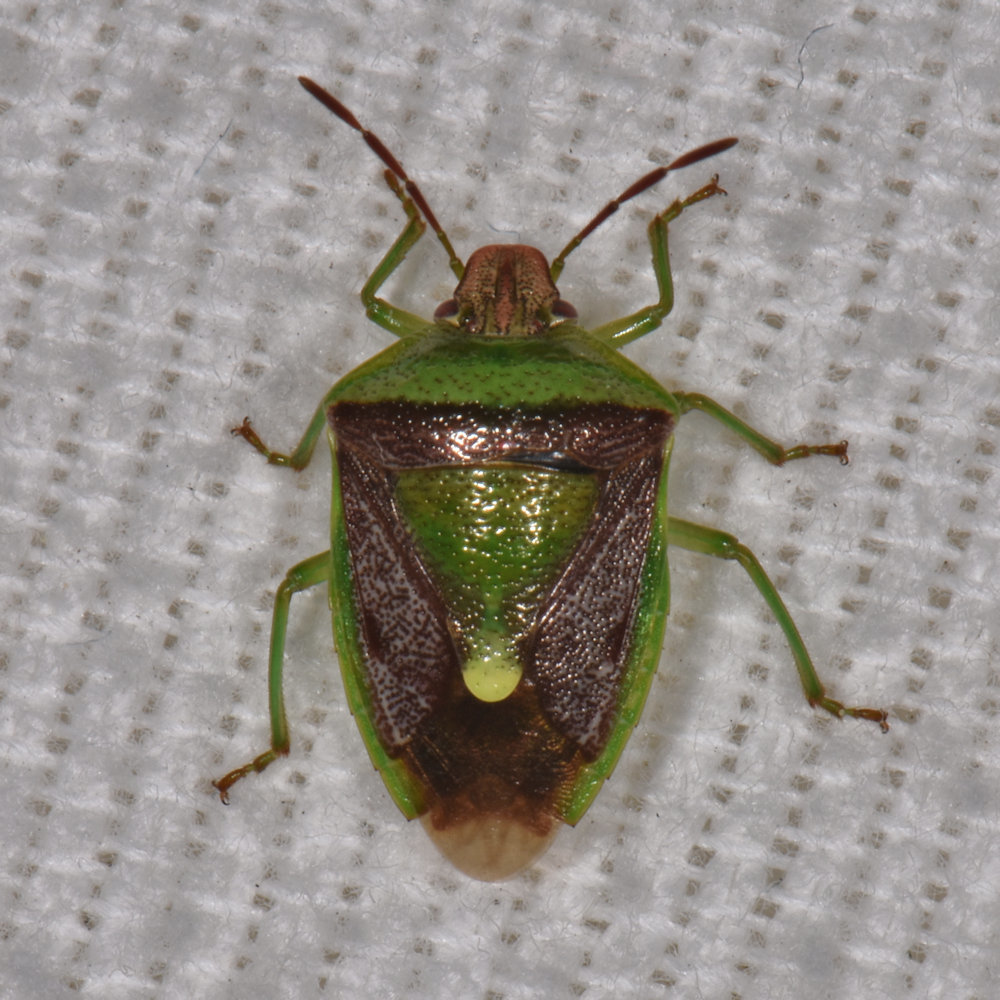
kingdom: Animalia
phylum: Arthropoda
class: Insecta
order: Hemiptera
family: Pentatomidae
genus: Banasa
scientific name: Banasa dimidiata
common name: Green burgundy stink bug
